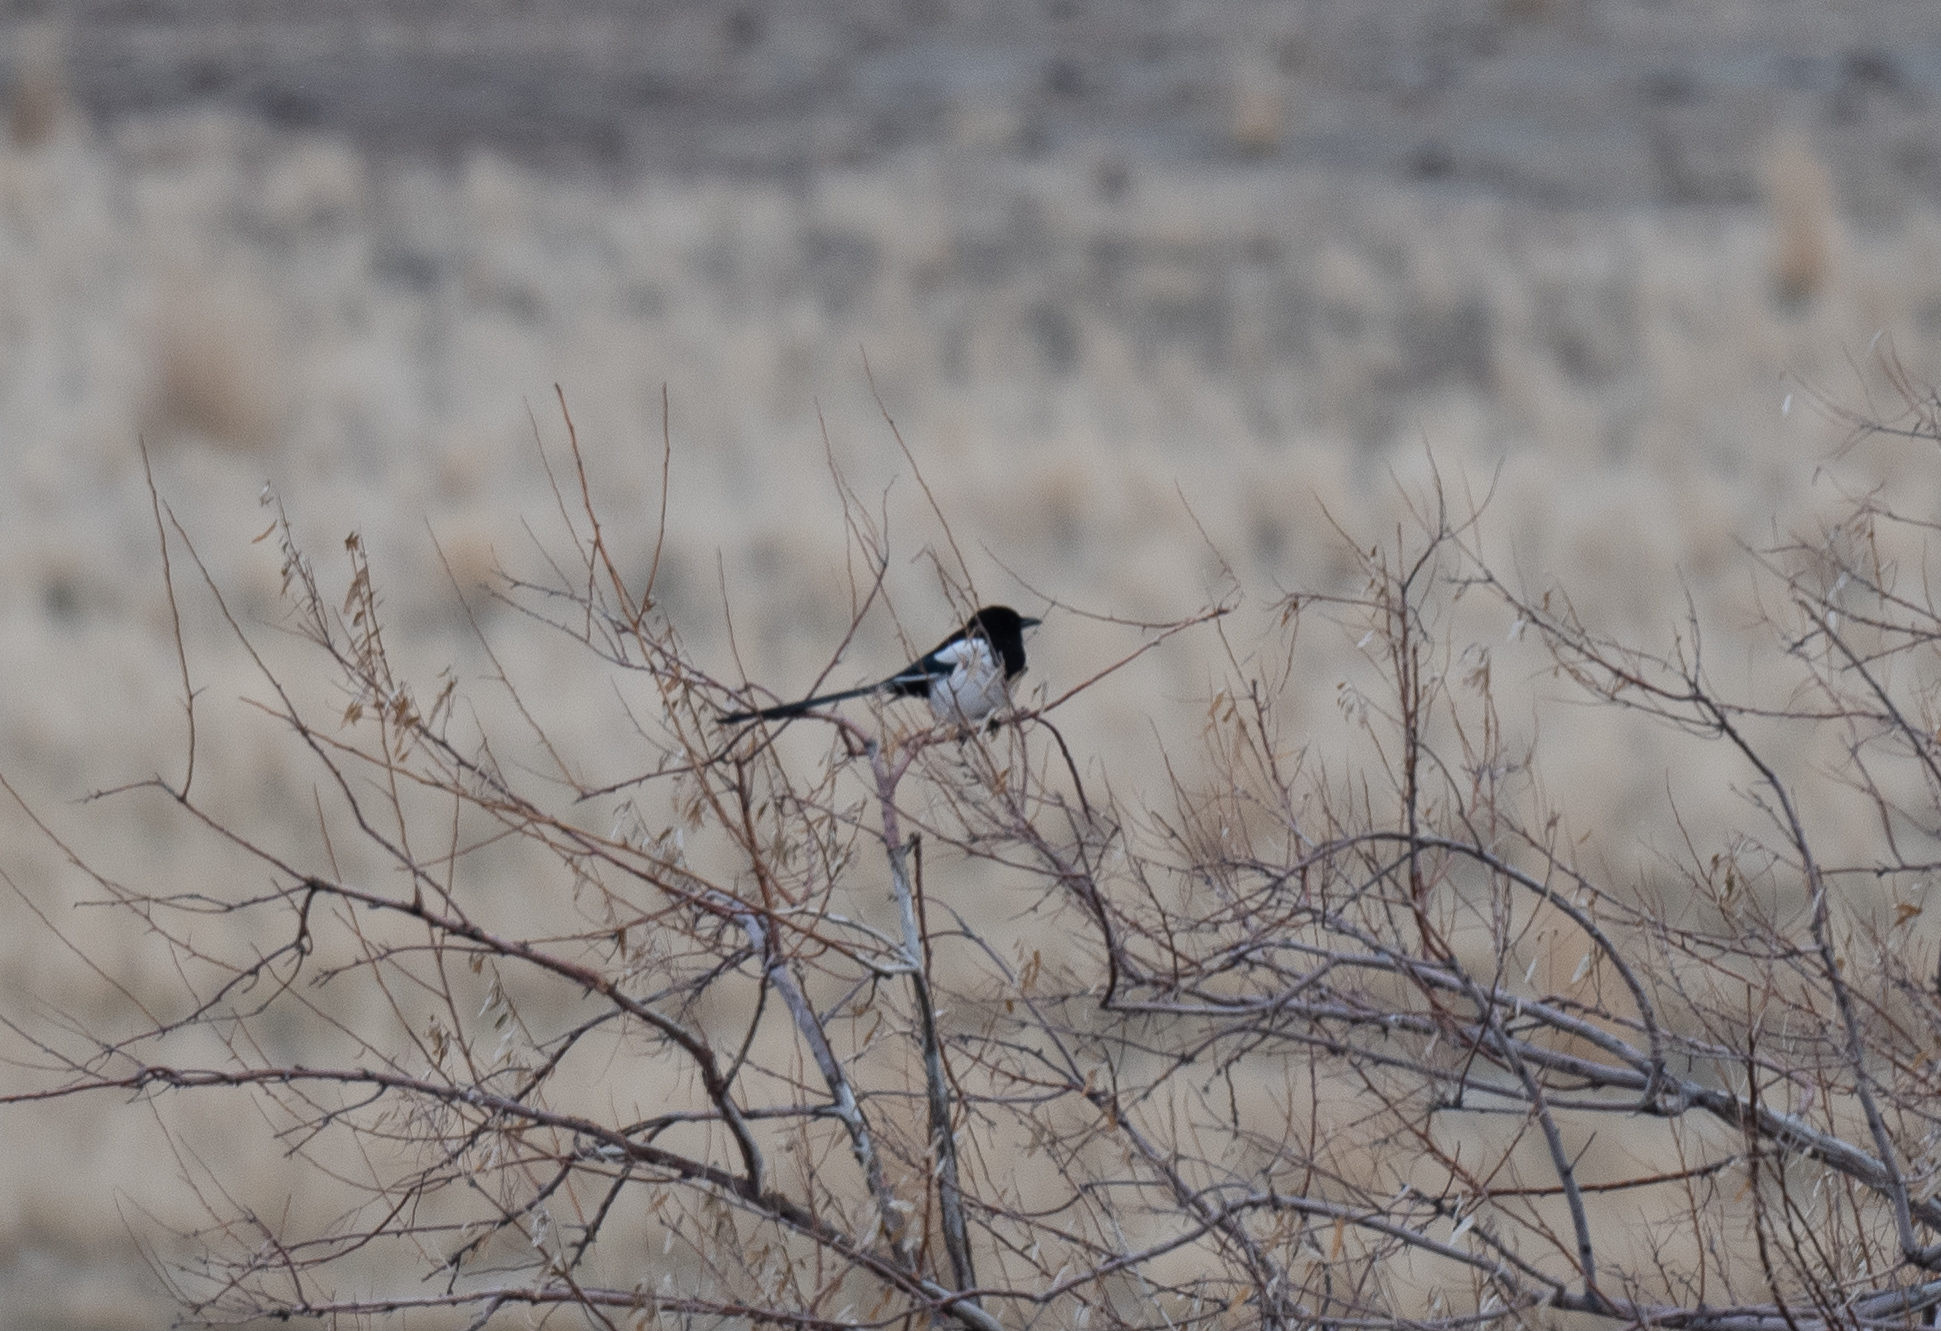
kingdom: Animalia
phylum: Chordata
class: Aves
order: Passeriformes
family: Corvidae
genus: Pica
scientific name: Pica hudsonia
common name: Black-billed magpie
